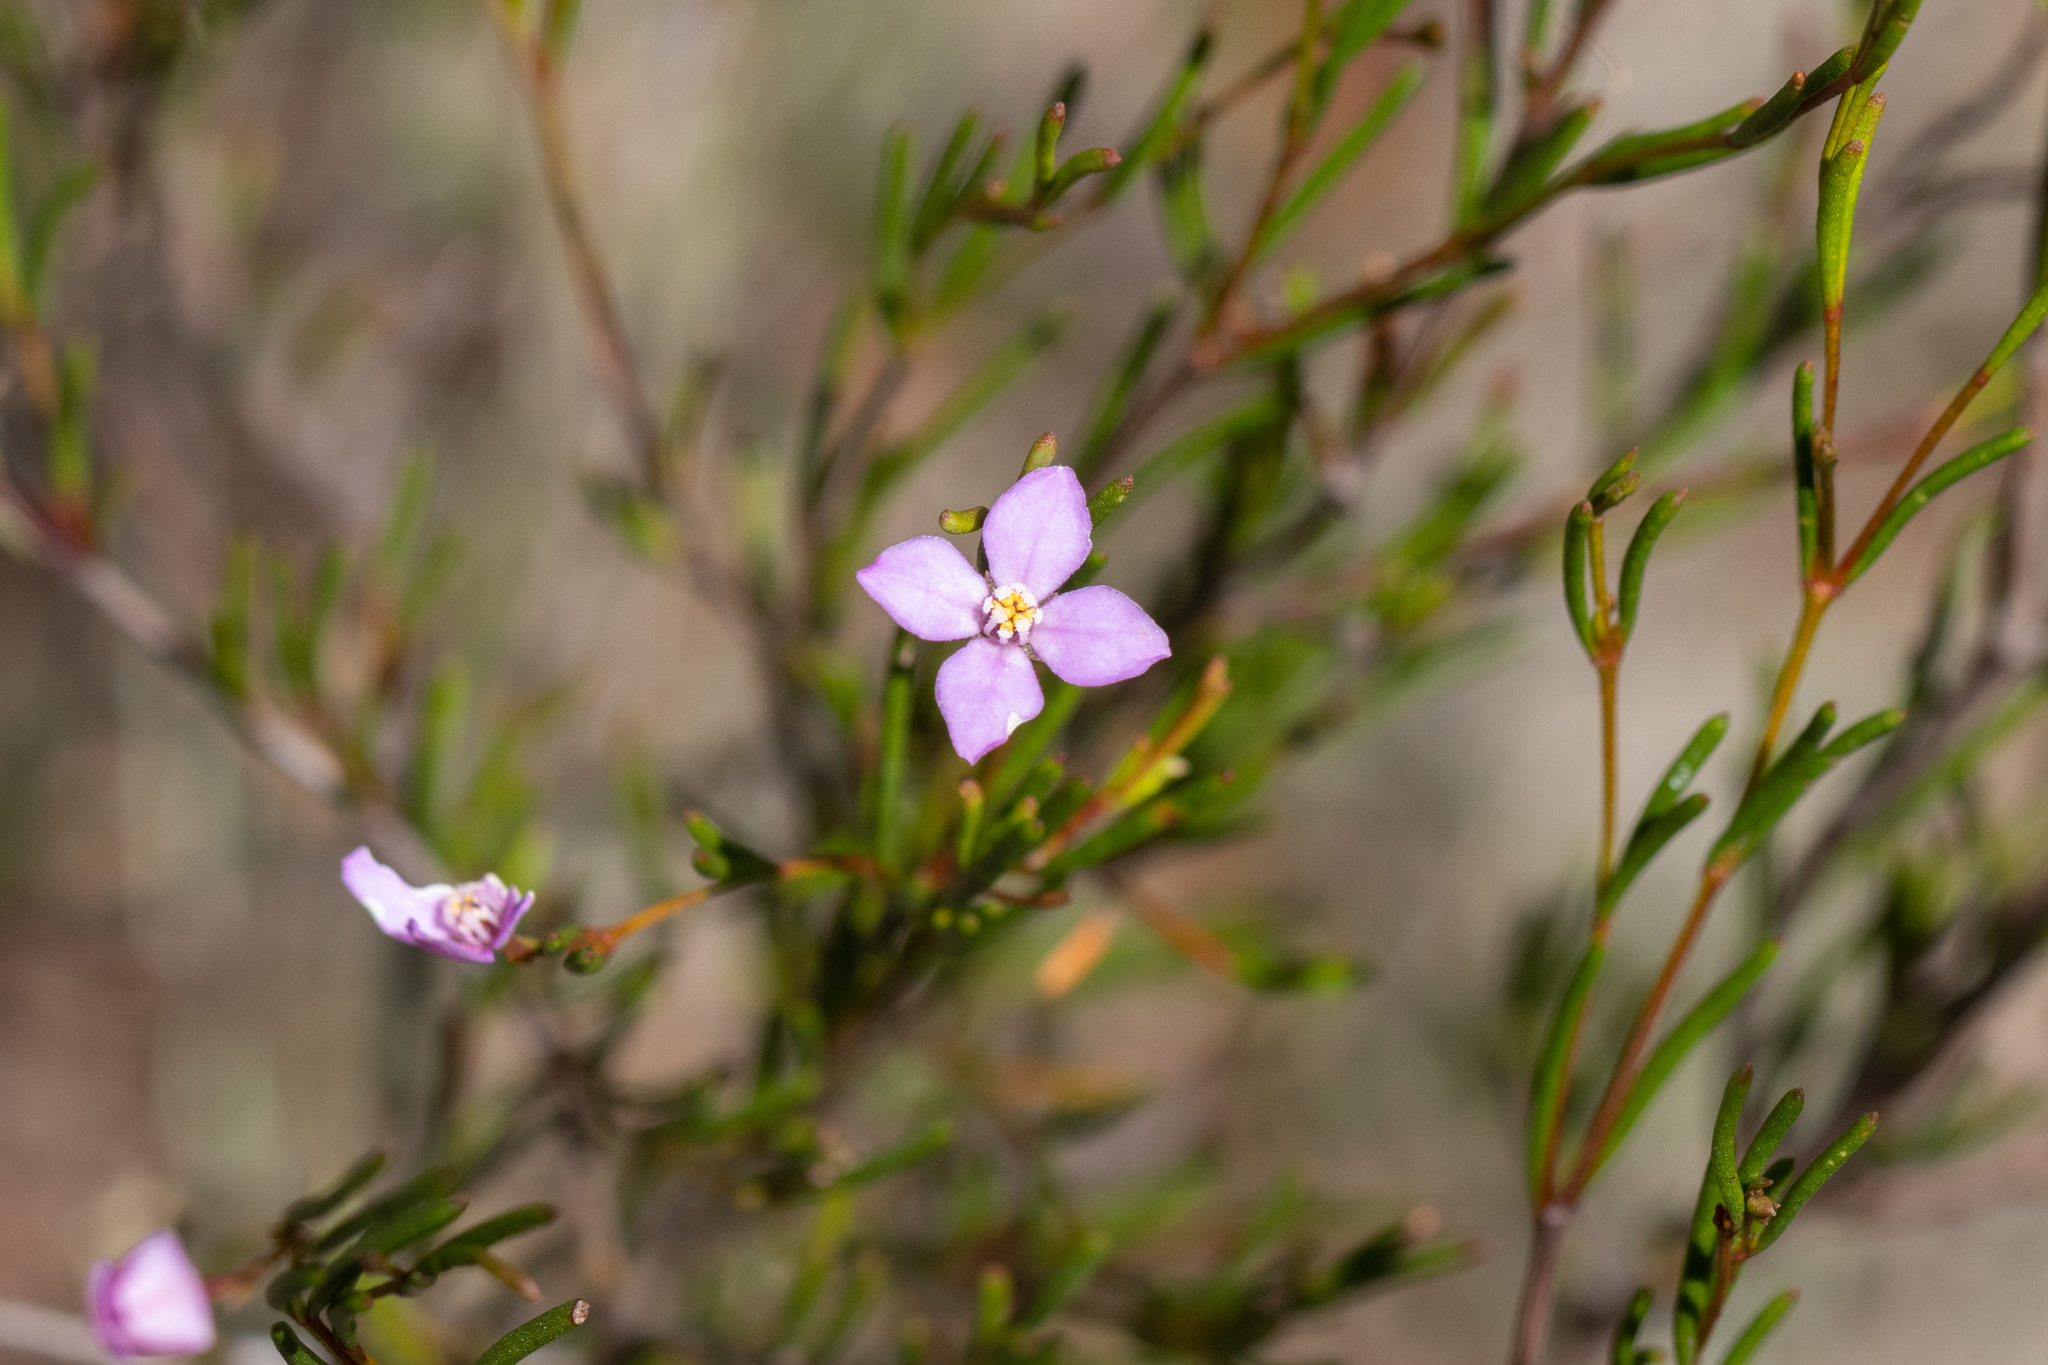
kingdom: Plantae
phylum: Tracheophyta
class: Magnoliopsida
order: Sapindales
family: Rutaceae
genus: Boronia
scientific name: Boronia filifolia
